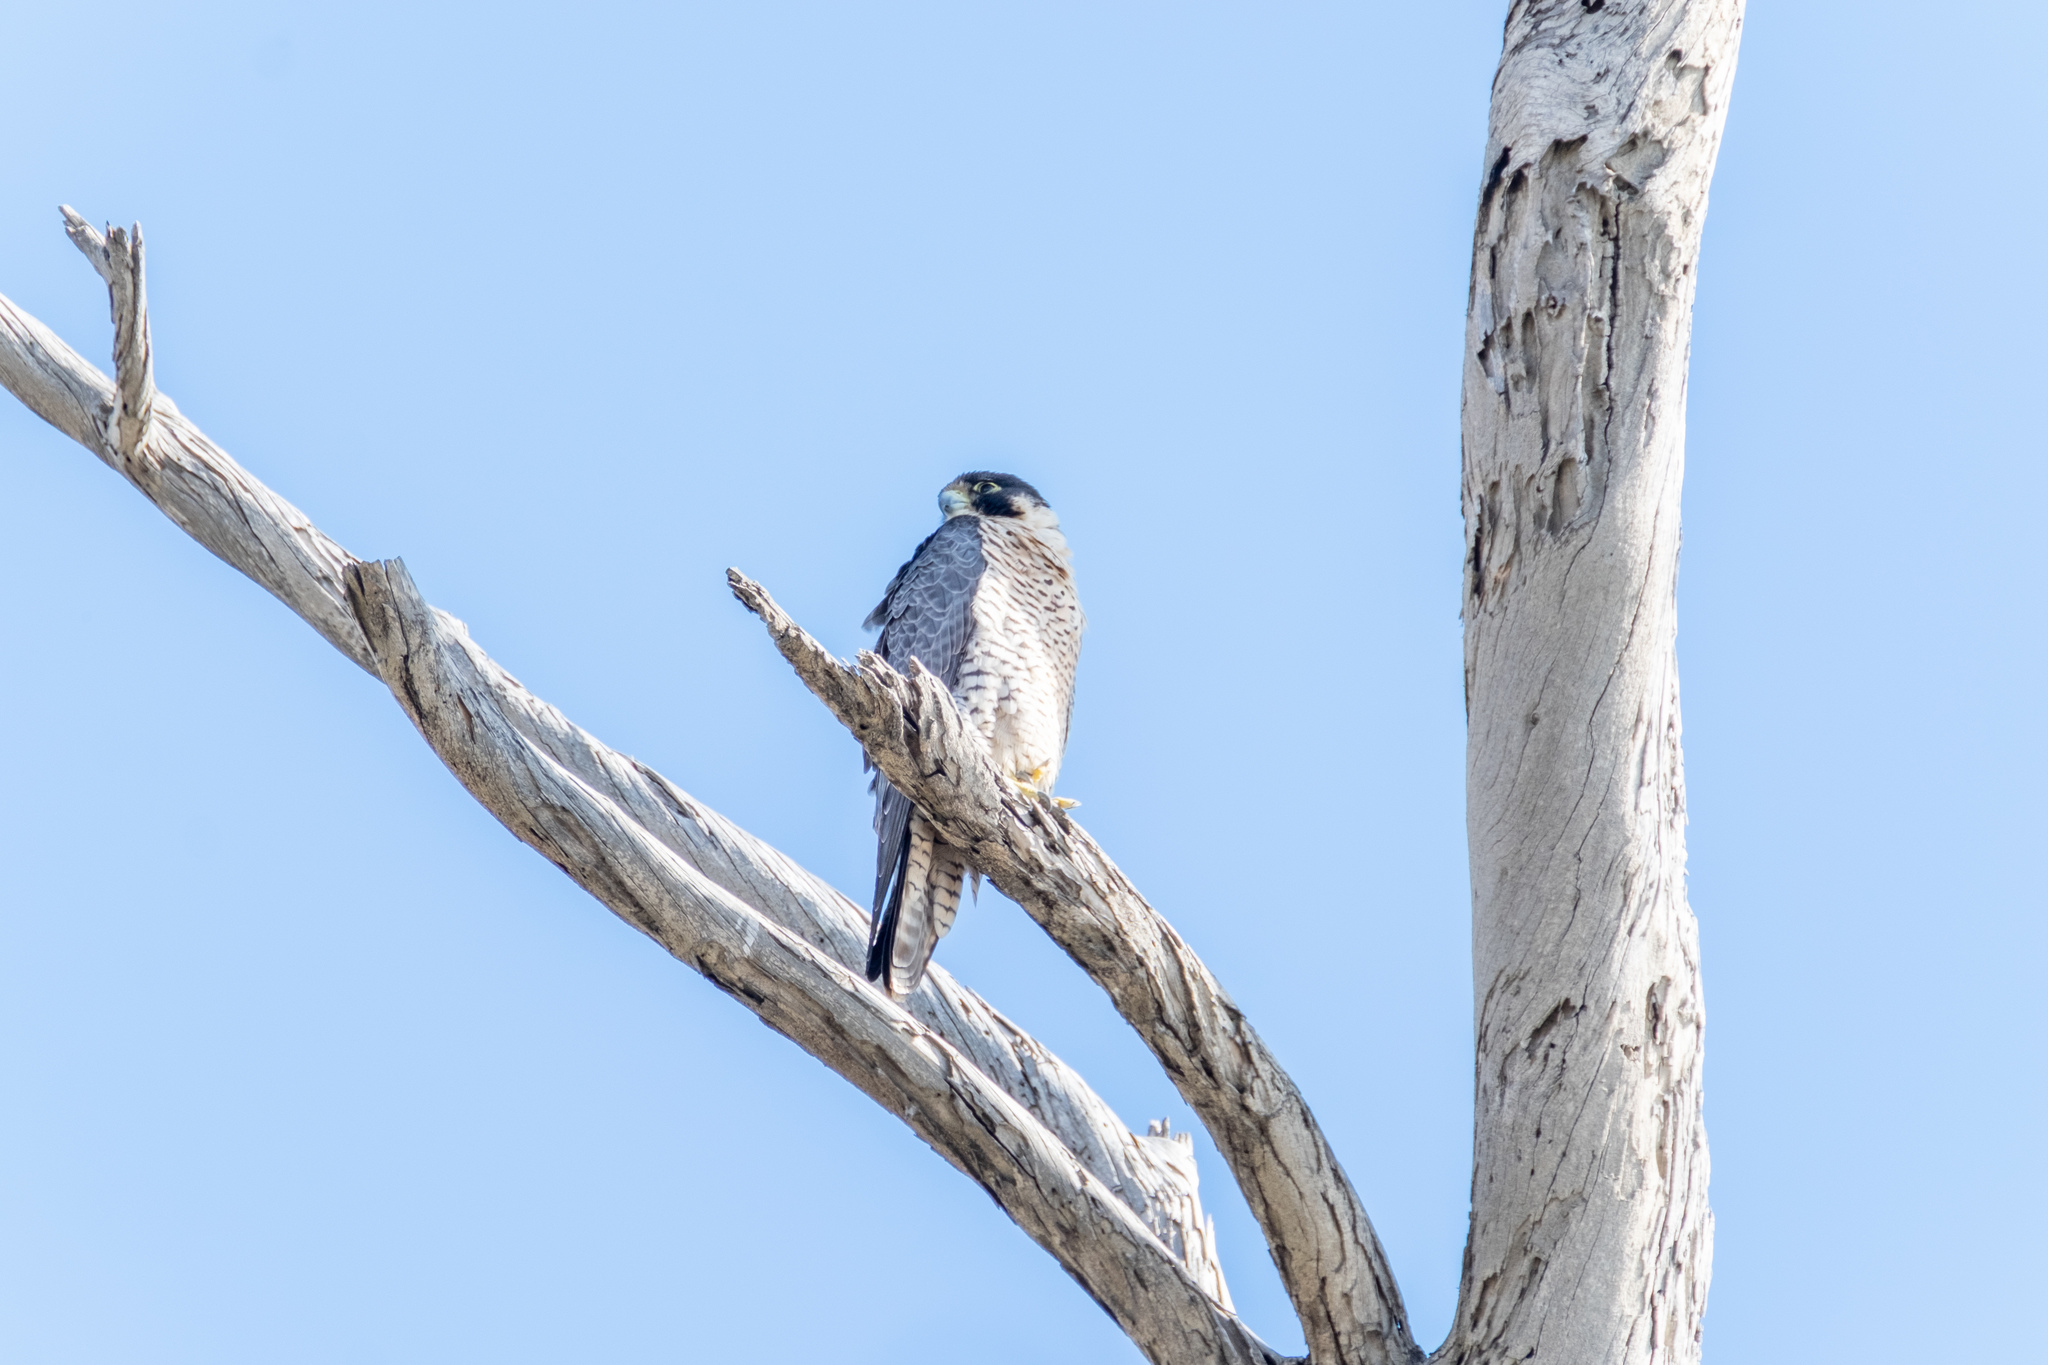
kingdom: Animalia
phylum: Chordata
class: Aves
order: Falconiformes
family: Falconidae
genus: Falco
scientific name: Falco peregrinus
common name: Peregrine falcon
